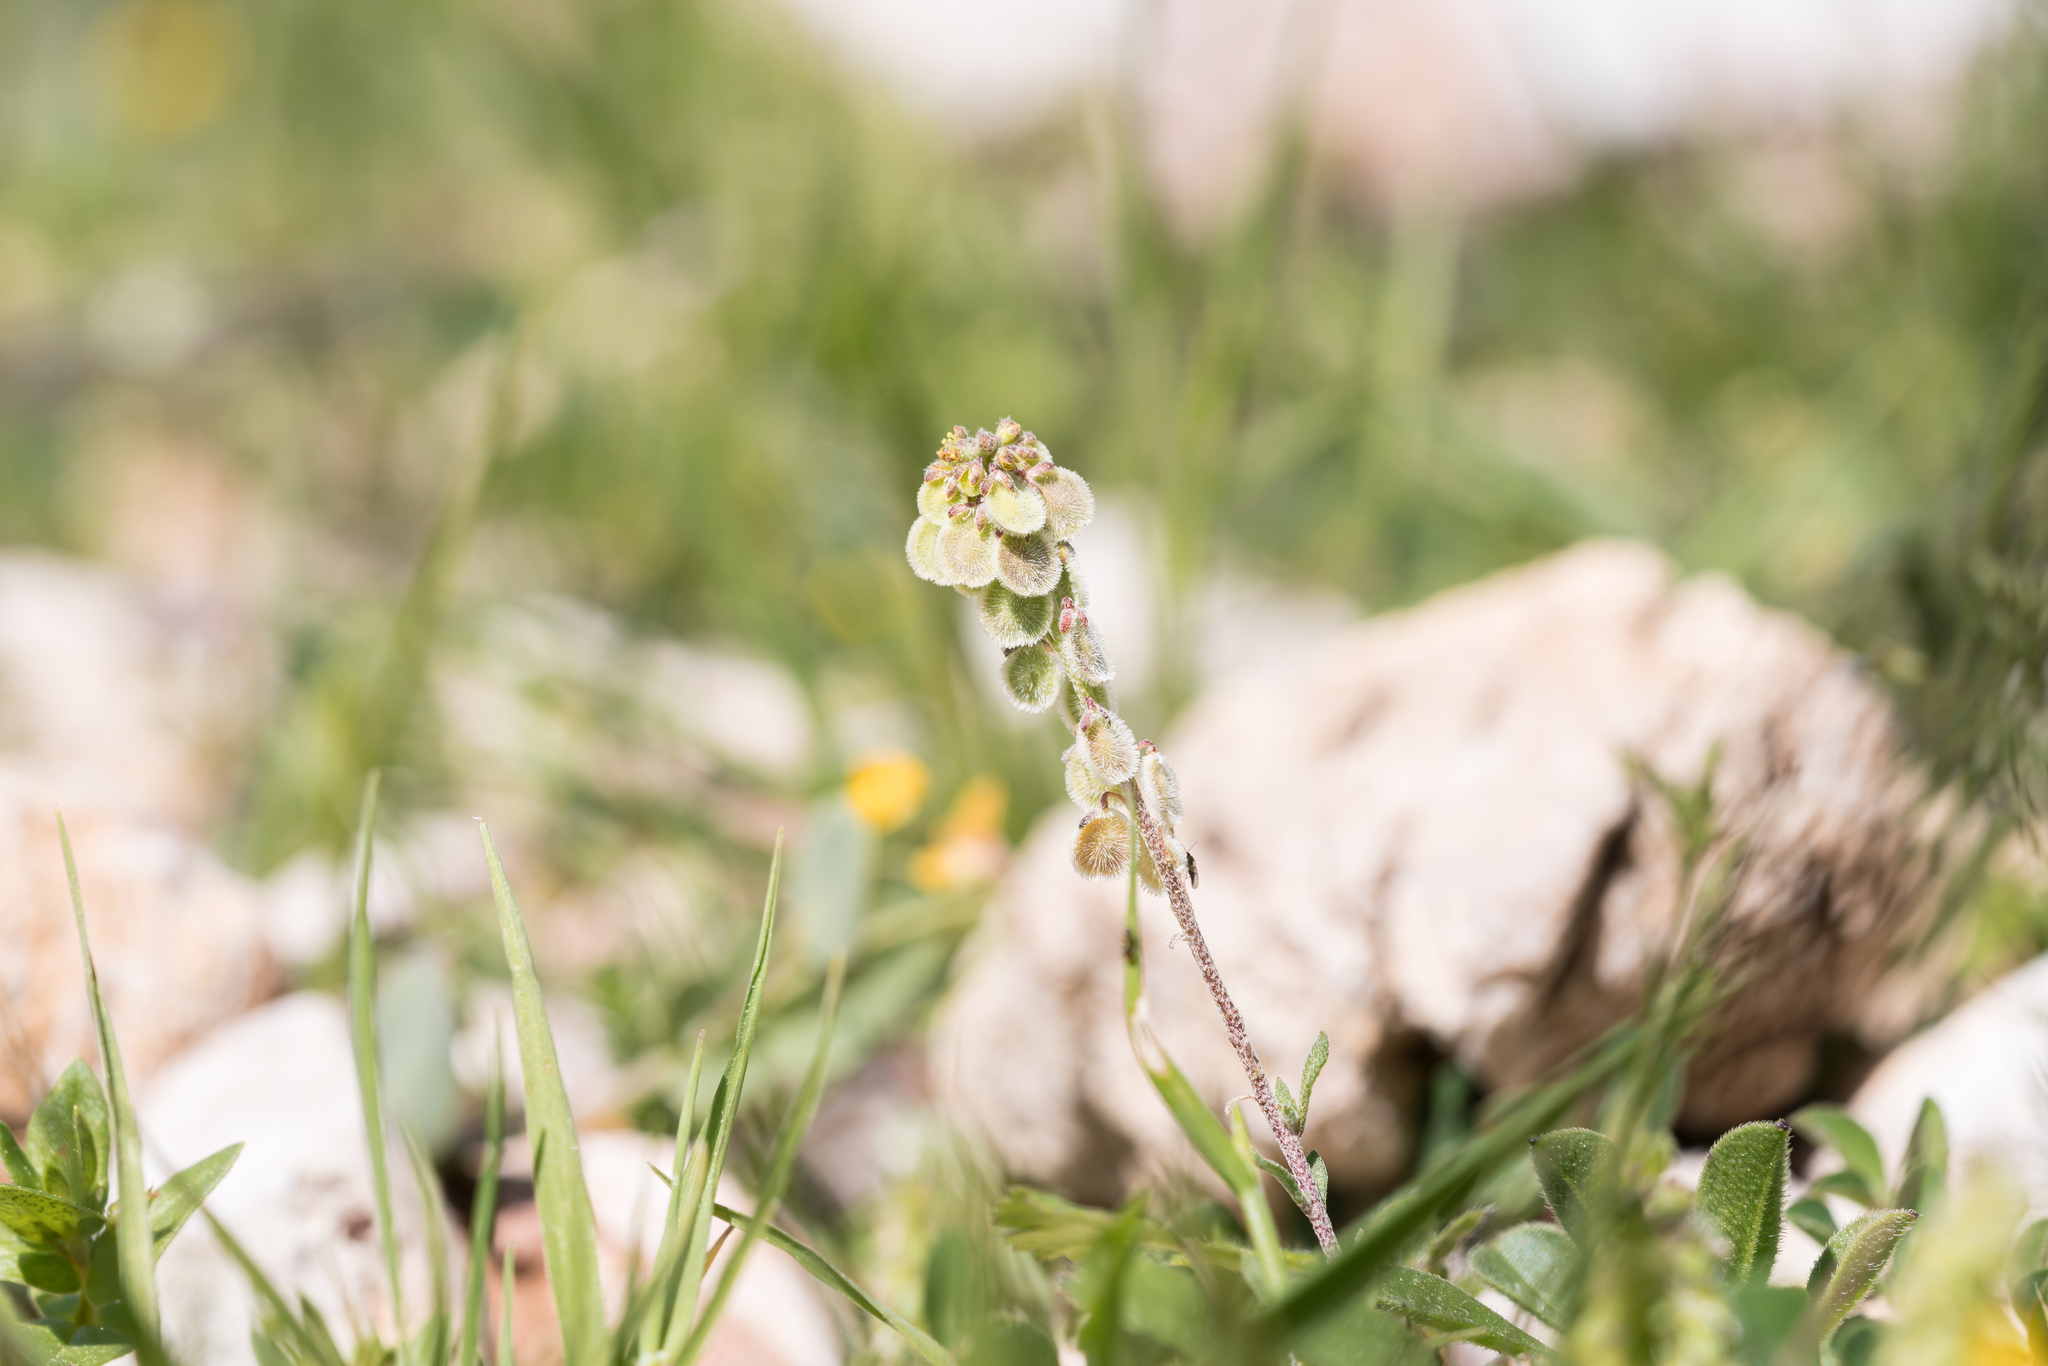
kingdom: Plantae
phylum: Tracheophyta
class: Magnoliopsida
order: Brassicales
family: Brassicaceae
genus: Clypeola
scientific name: Clypeola jonthlaspi
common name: Disk cress
